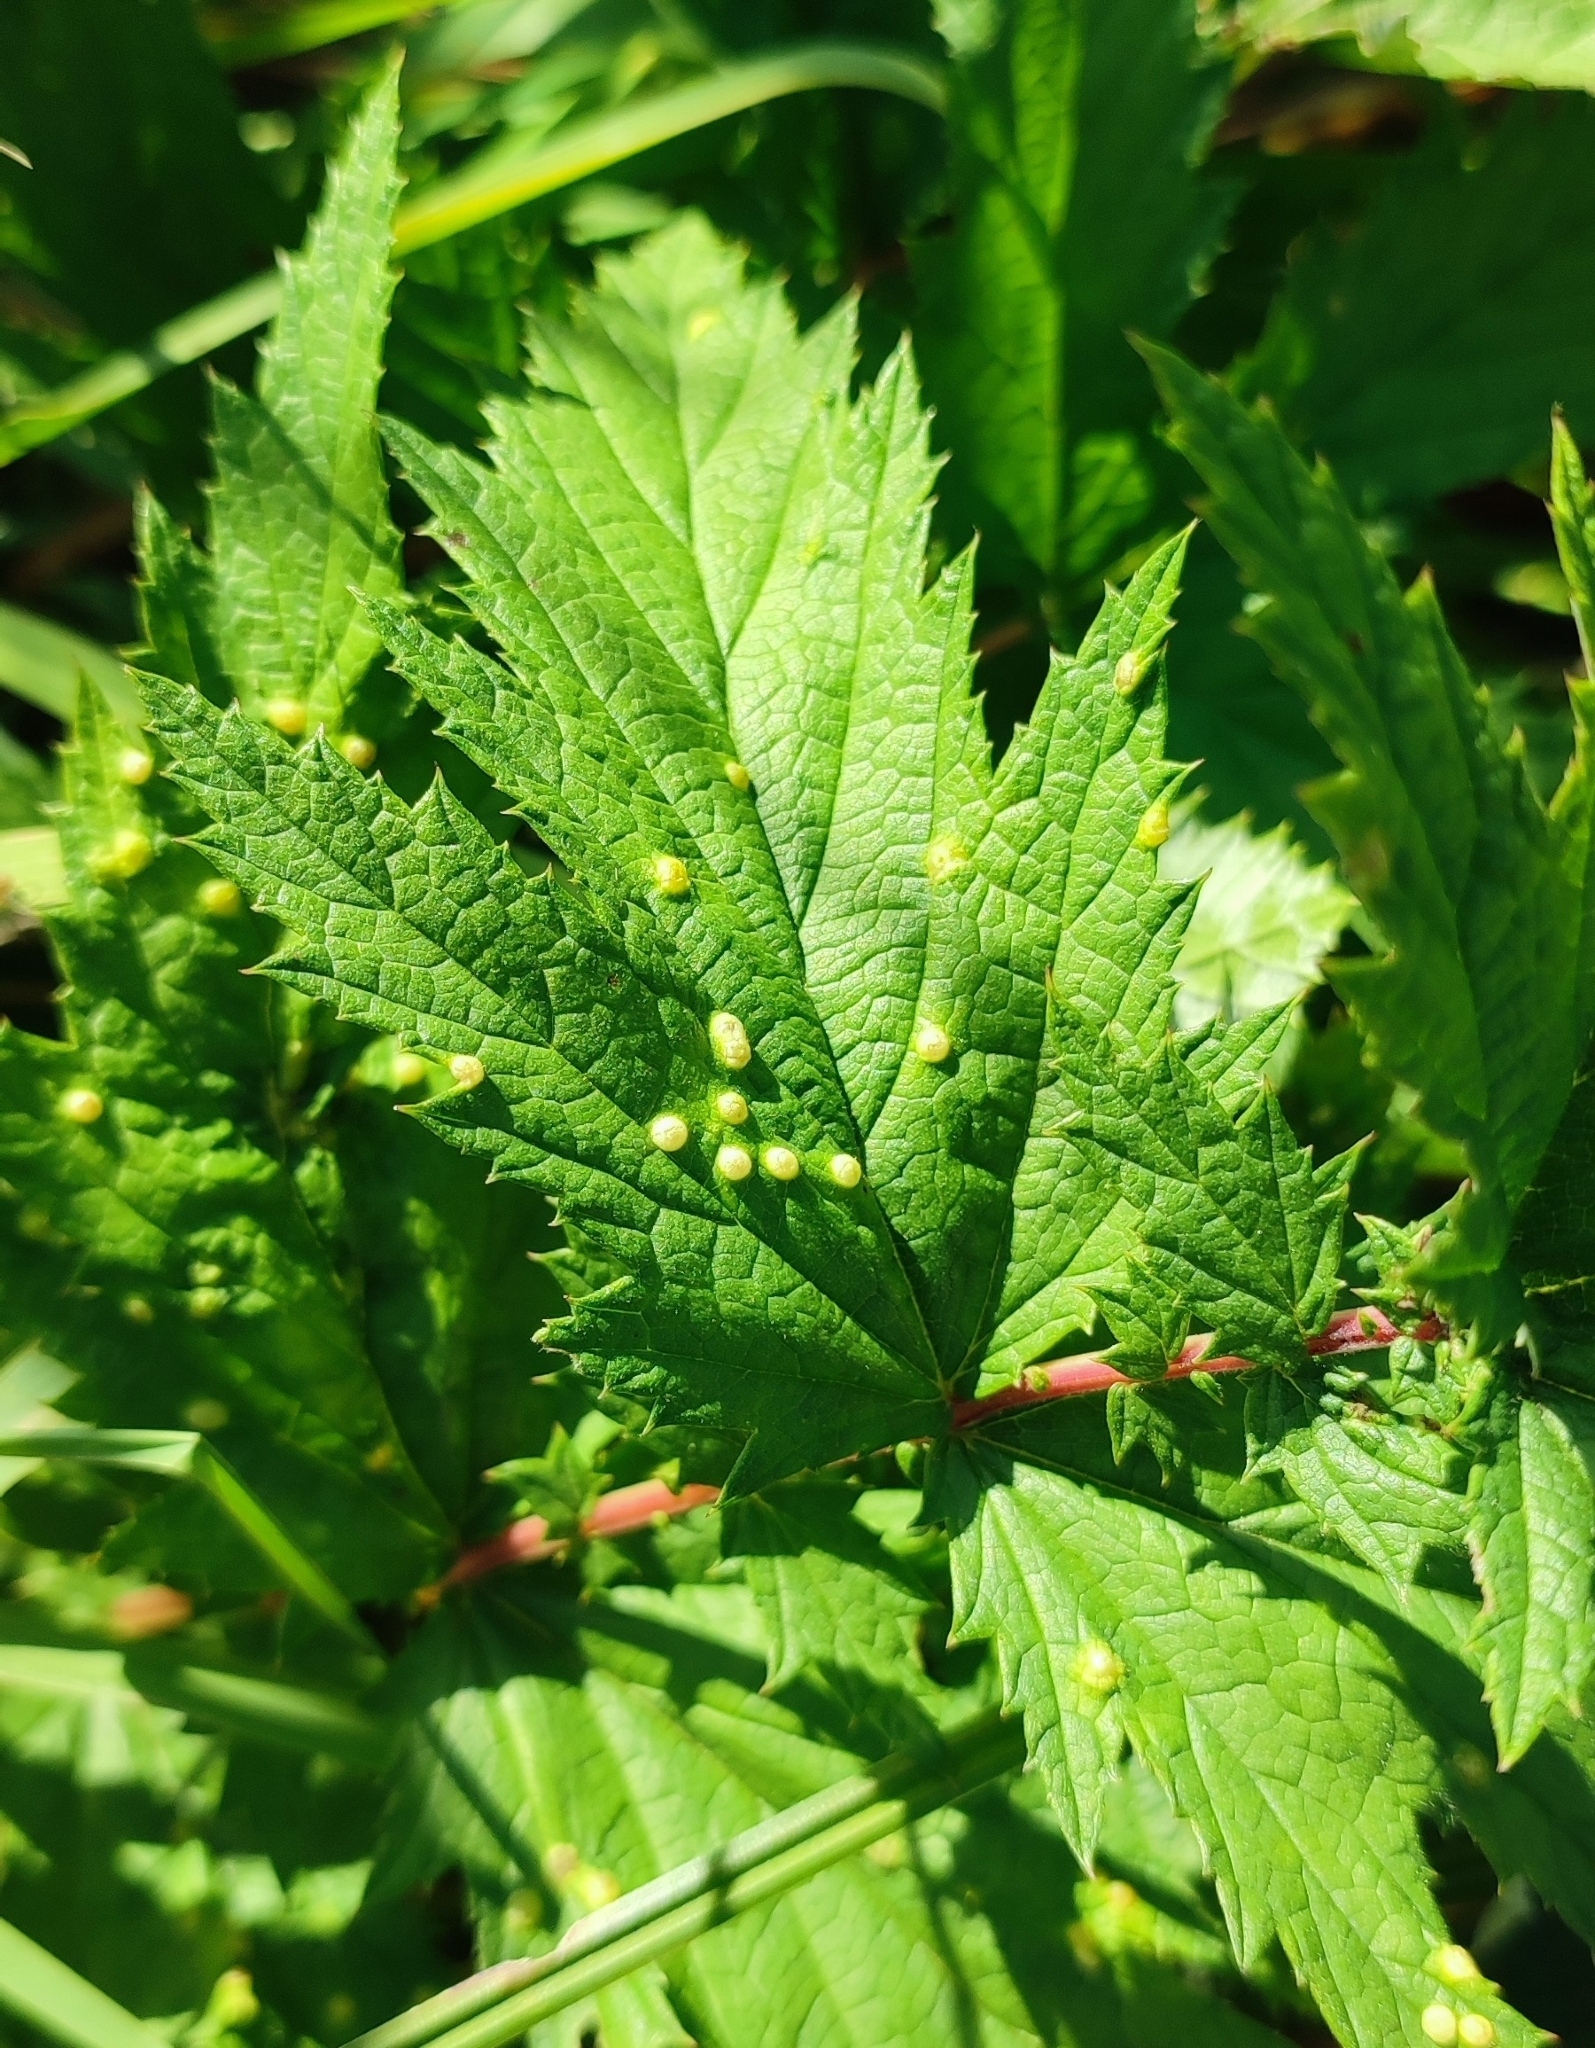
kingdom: Animalia
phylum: Arthropoda
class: Insecta
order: Diptera
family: Cecidomyiidae
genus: Dasineura
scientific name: Dasineura ulmaria
